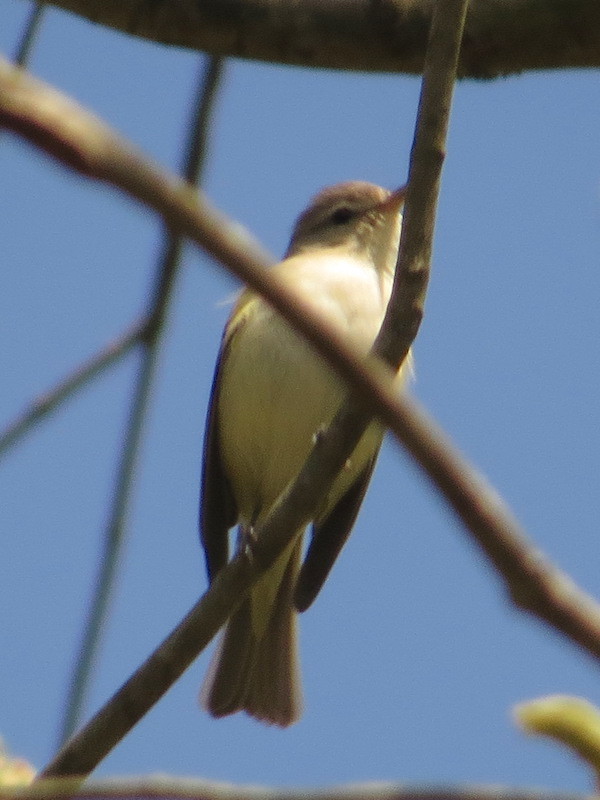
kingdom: Animalia
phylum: Chordata
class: Aves
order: Passeriformes
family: Vireonidae
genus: Vireo
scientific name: Vireo gilvus
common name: Warbling vireo
